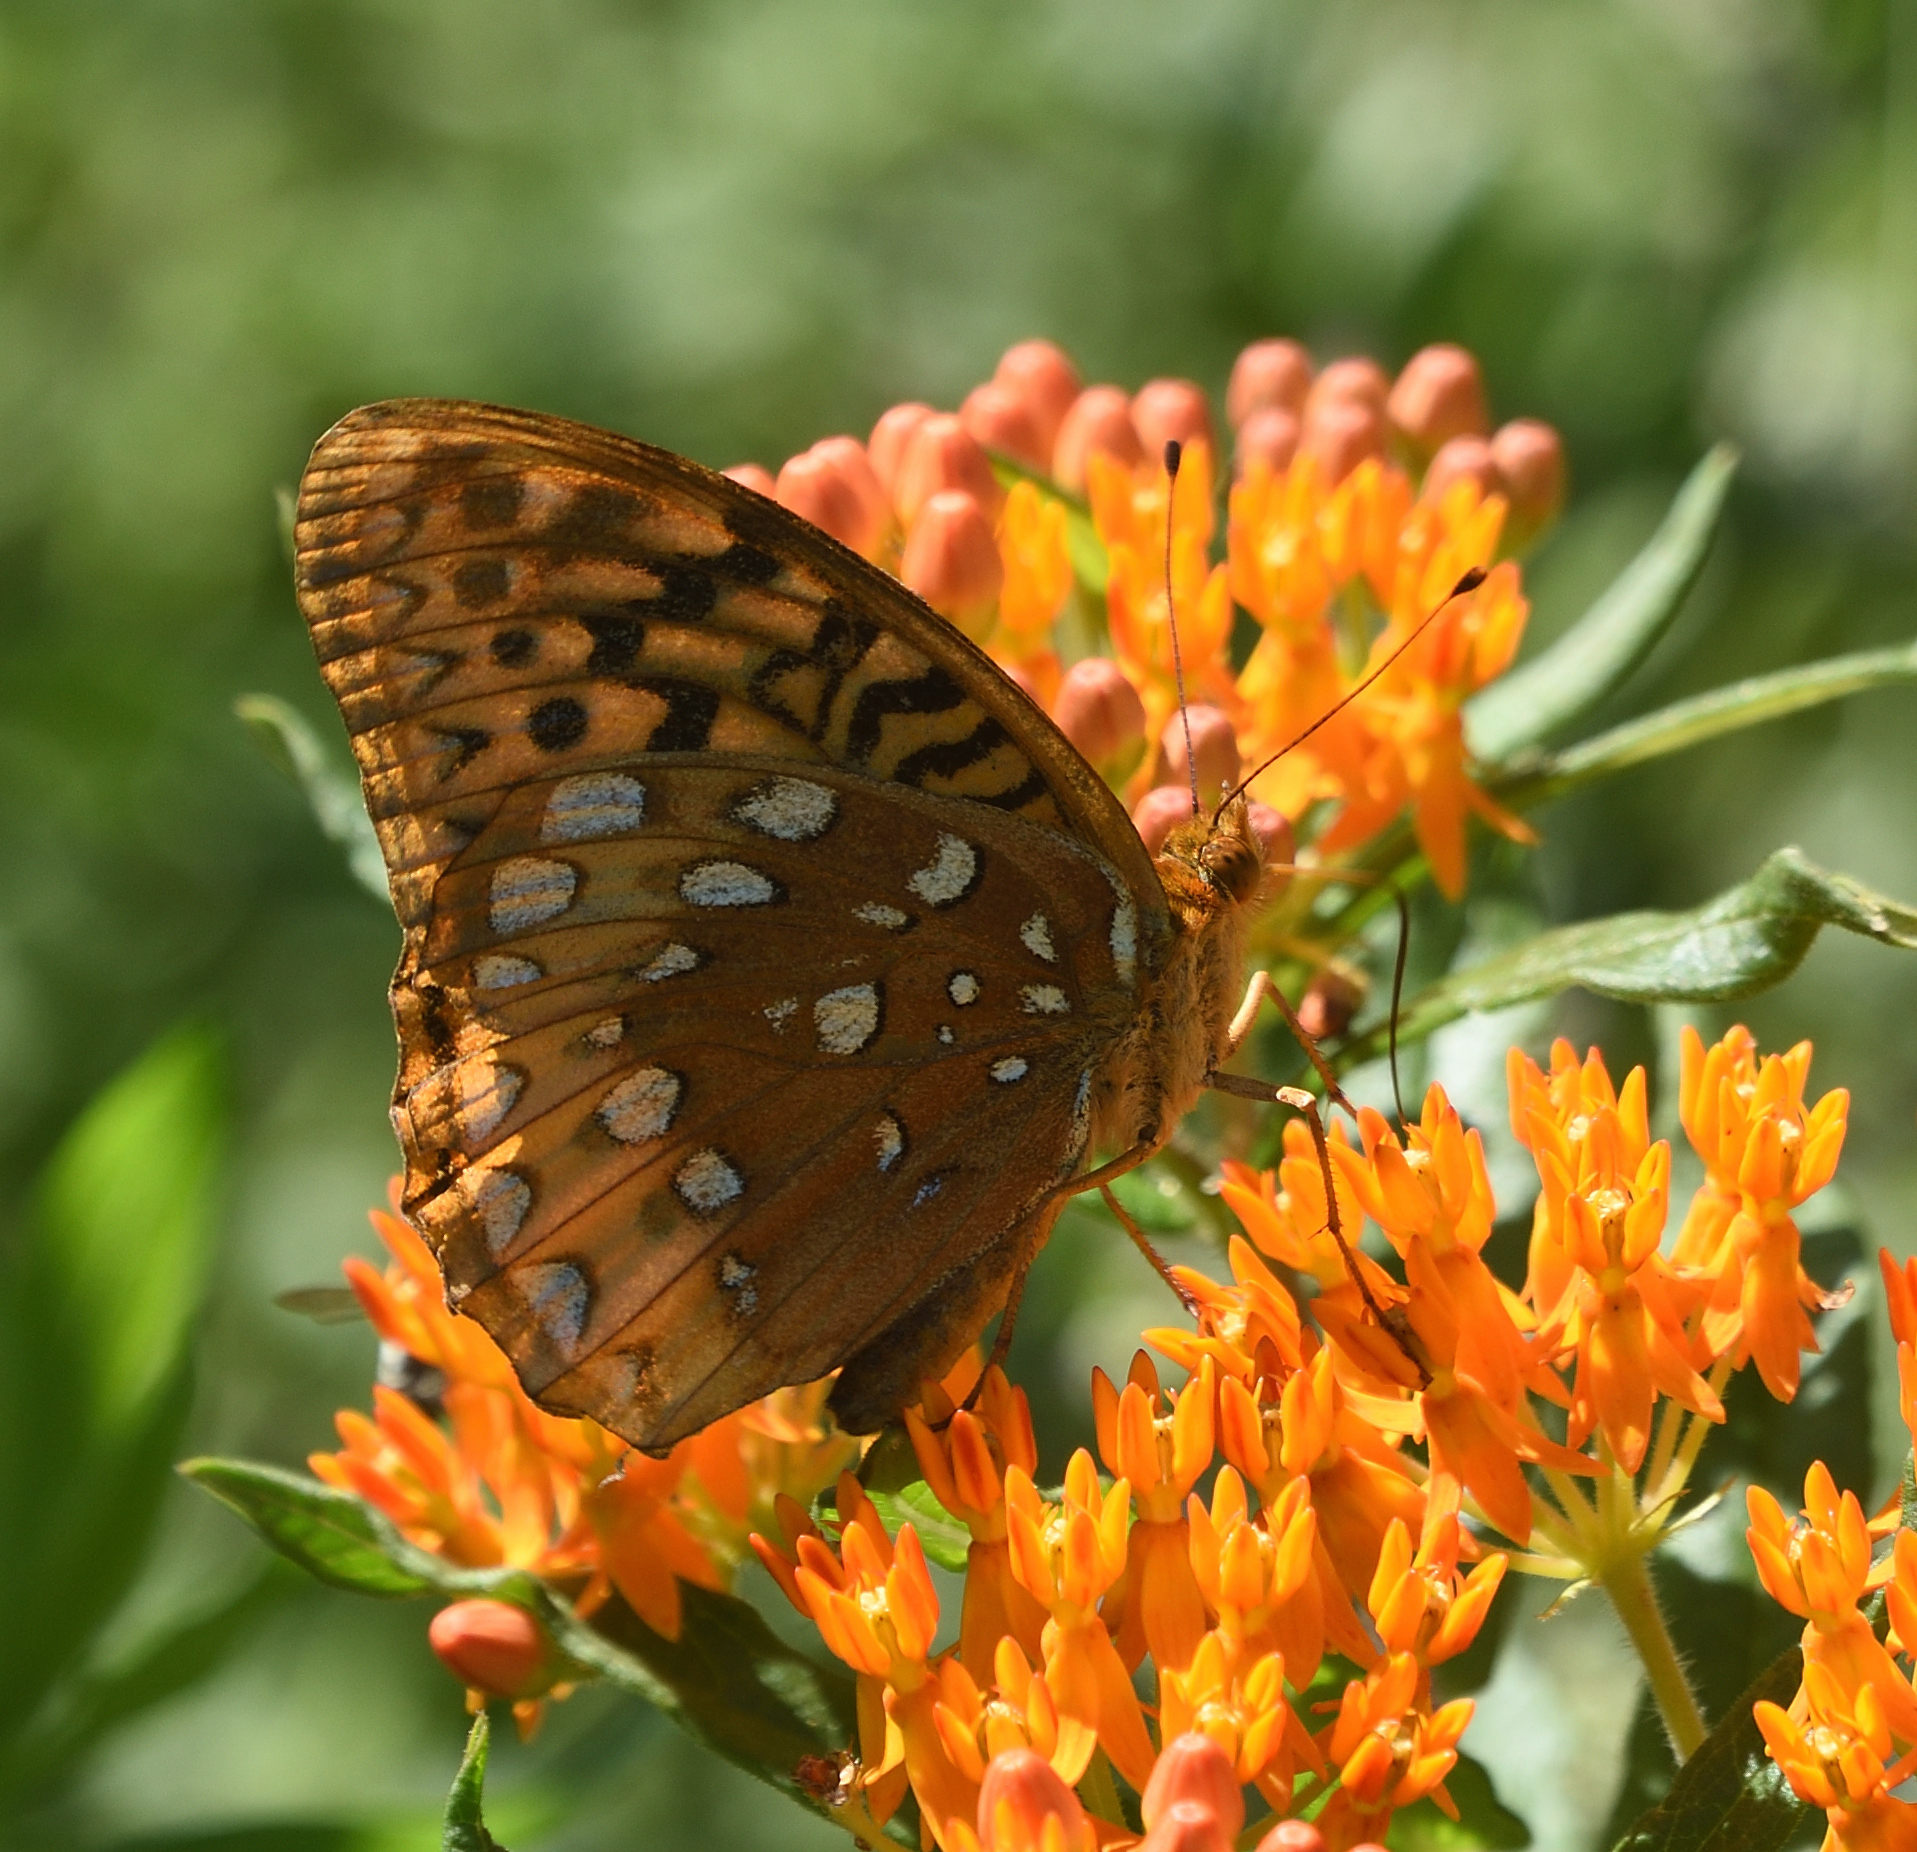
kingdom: Animalia
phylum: Arthropoda
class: Insecta
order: Lepidoptera
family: Nymphalidae
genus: Speyeria
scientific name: Speyeria cybele
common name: Great spangled fritillary
